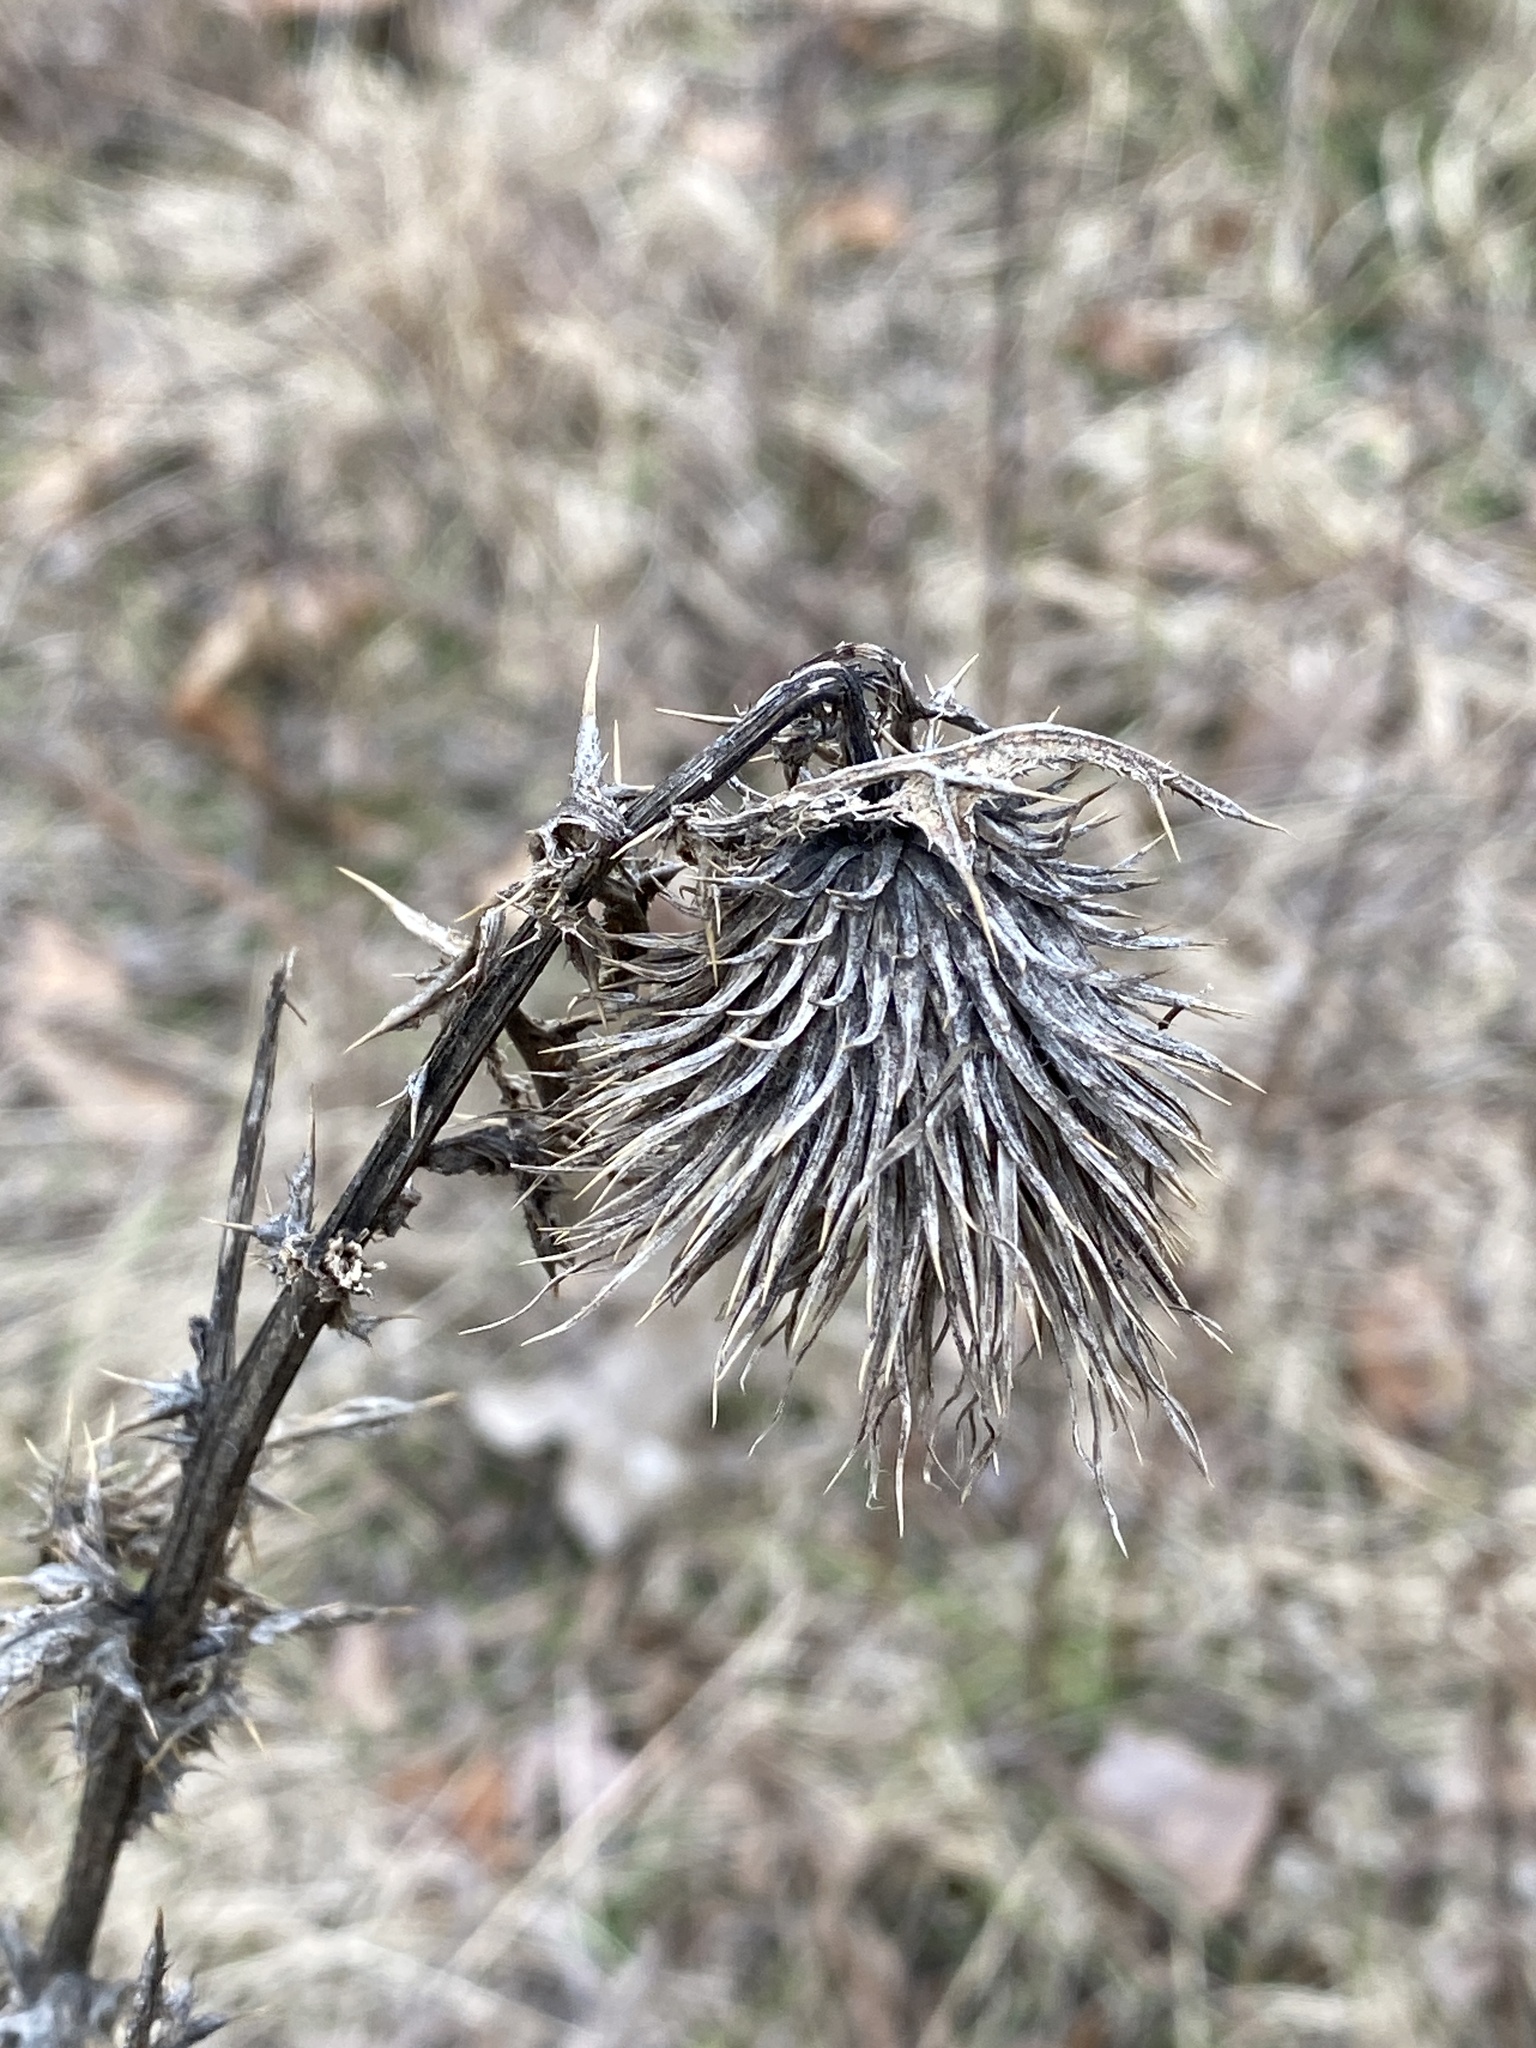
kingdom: Plantae
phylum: Tracheophyta
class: Magnoliopsida
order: Asterales
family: Asteraceae
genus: Cirsium
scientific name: Cirsium vulgare
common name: Bull thistle
